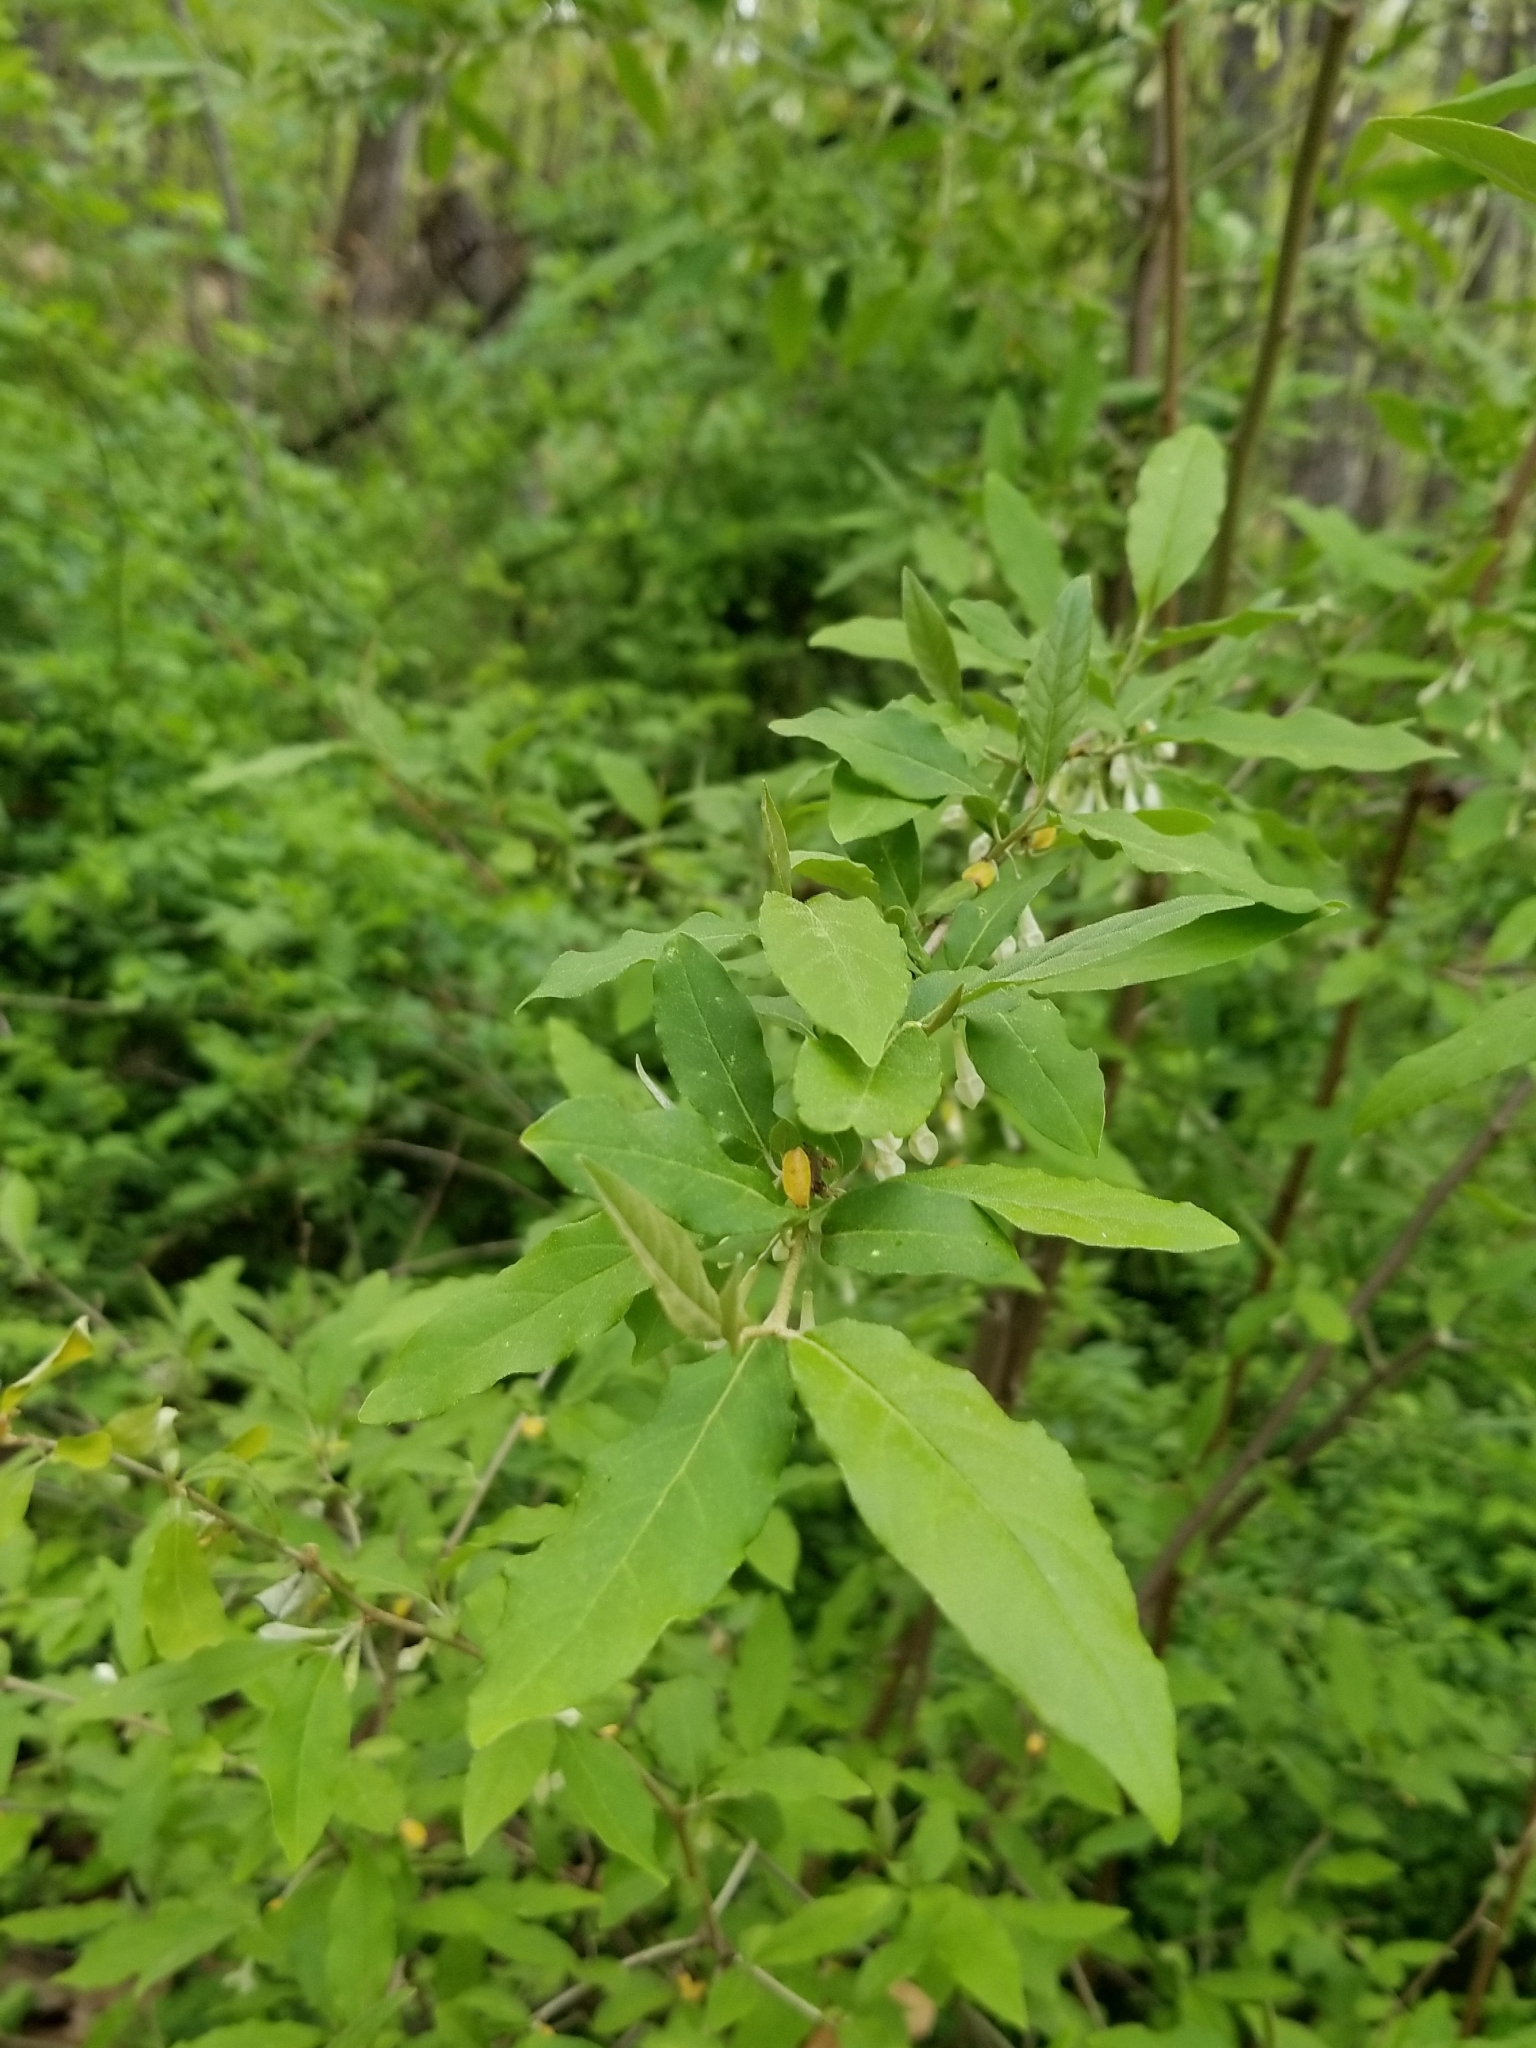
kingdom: Plantae
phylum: Tracheophyta
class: Magnoliopsida
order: Rosales
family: Elaeagnaceae
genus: Elaeagnus
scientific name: Elaeagnus umbellata
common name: Autumn olive
